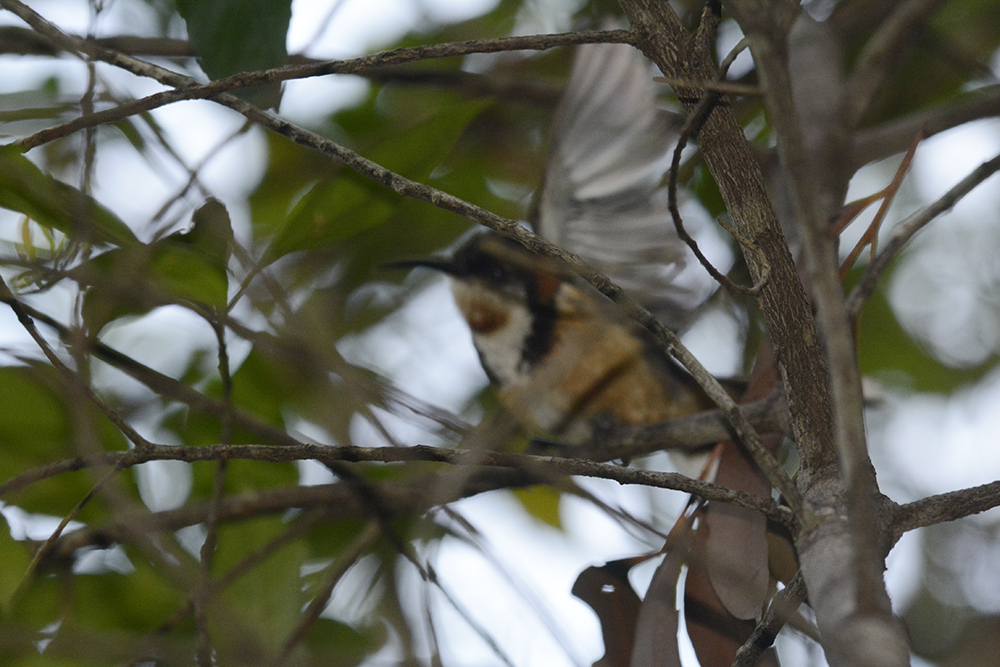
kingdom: Animalia
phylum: Chordata
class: Aves
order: Passeriformes
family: Meliphagidae
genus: Acanthorhynchus
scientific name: Acanthorhynchus tenuirostris
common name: Eastern spinebill
